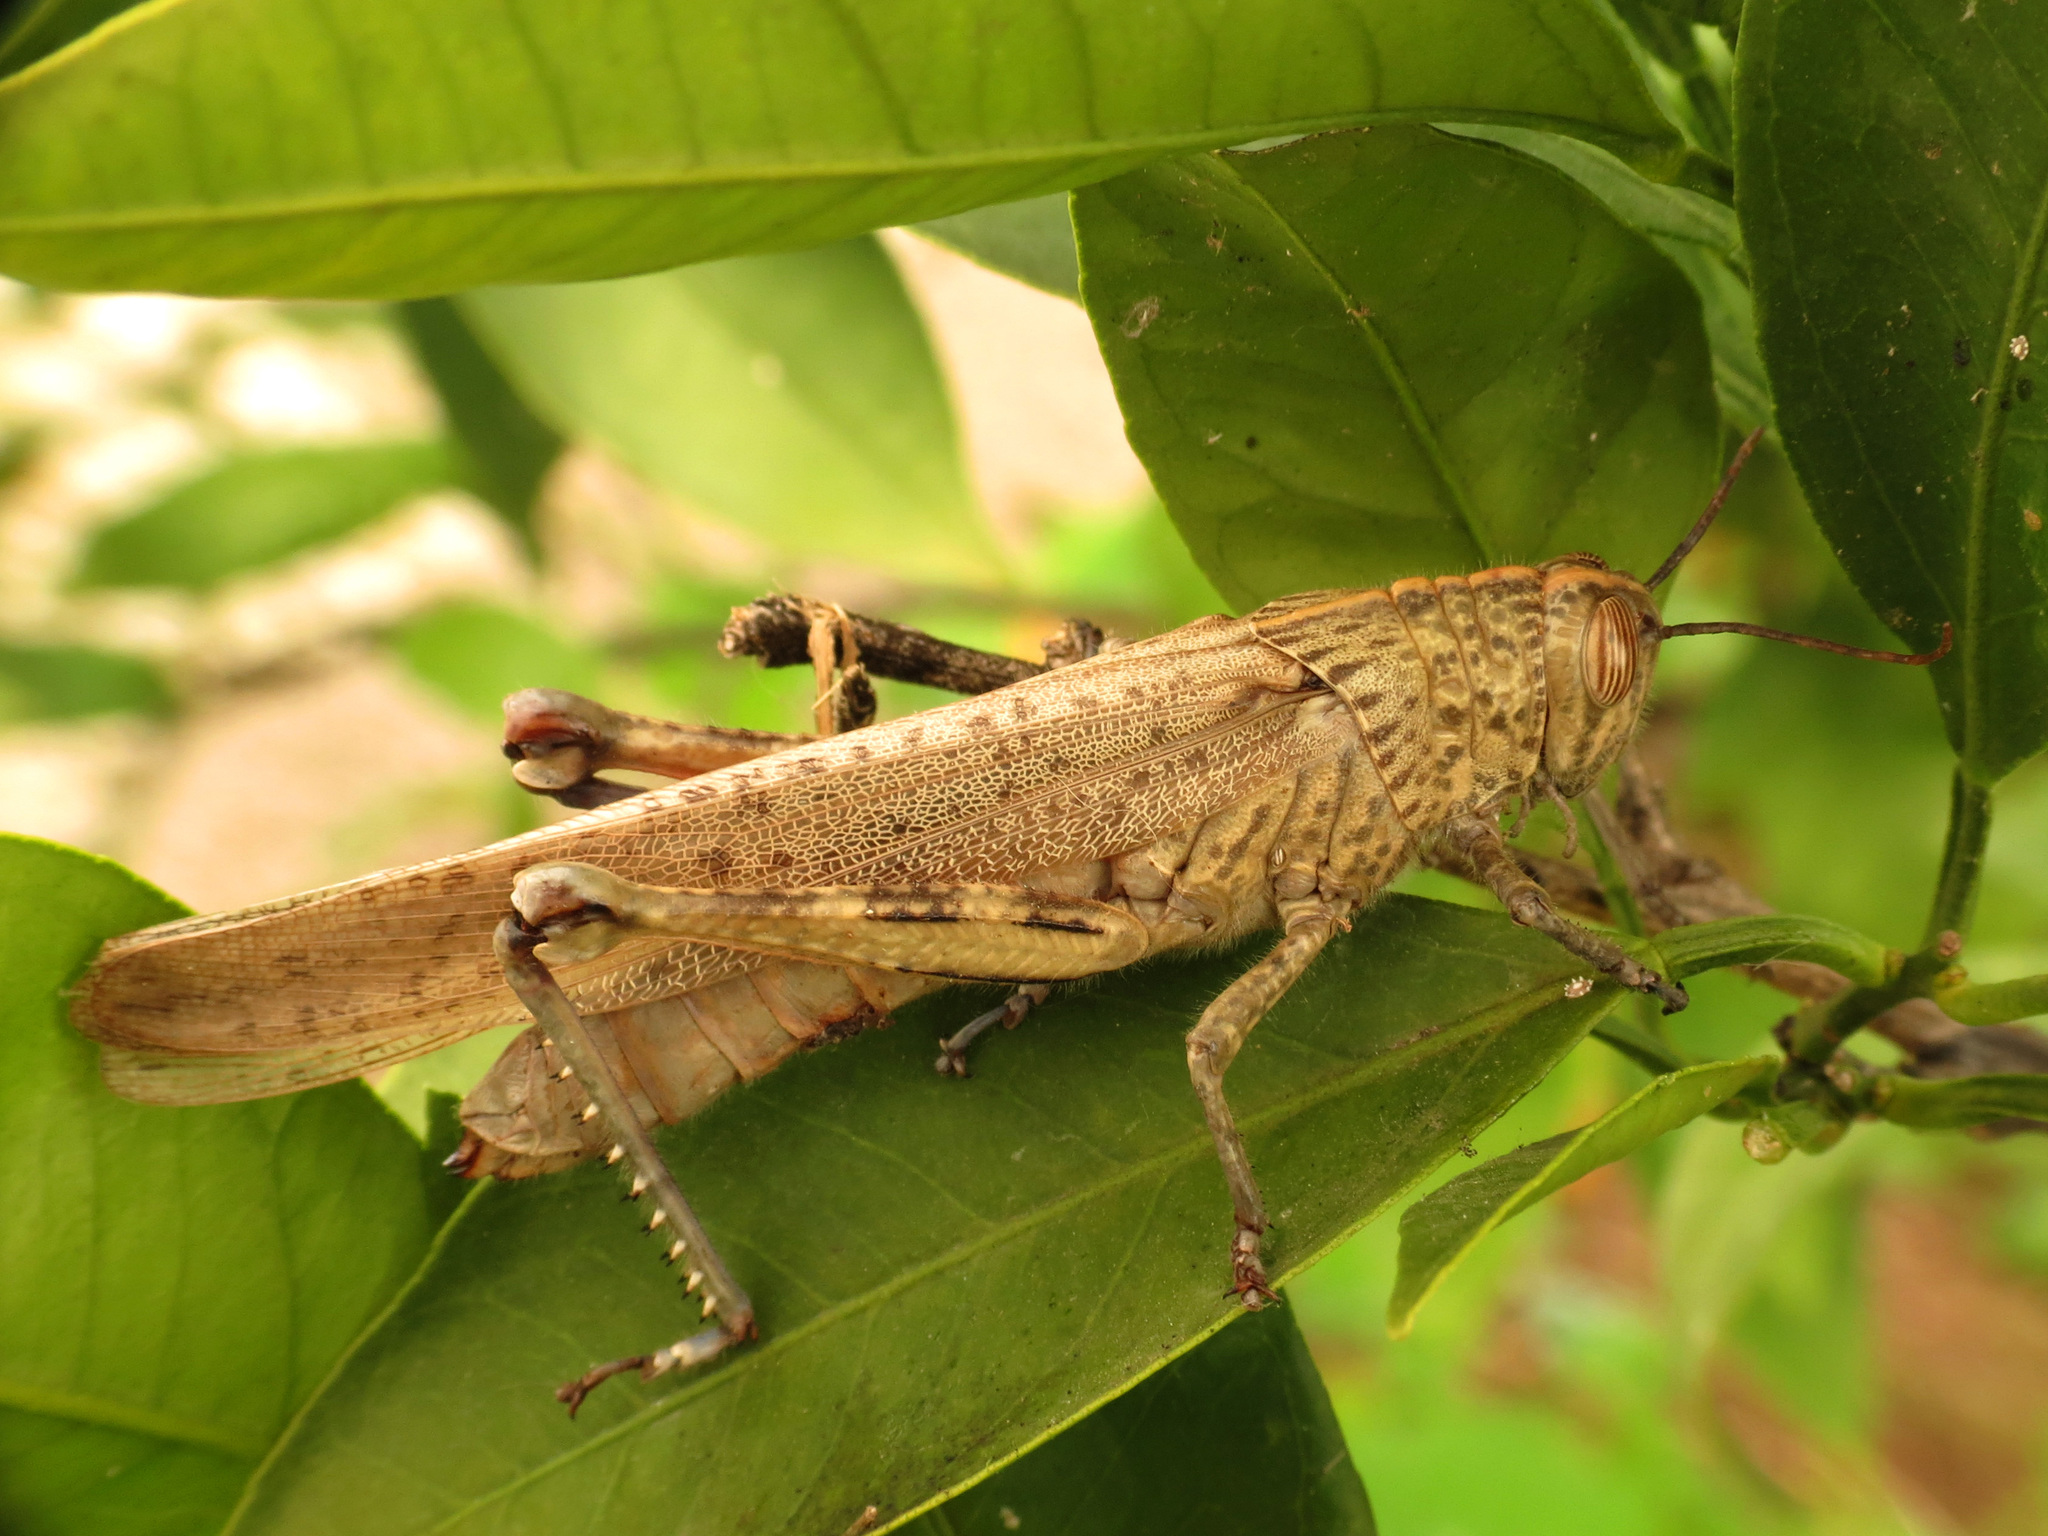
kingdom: Animalia
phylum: Arthropoda
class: Insecta
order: Orthoptera
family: Acrididae
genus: Anacridium
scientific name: Anacridium aegyptium
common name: Egyptian grasshopper
